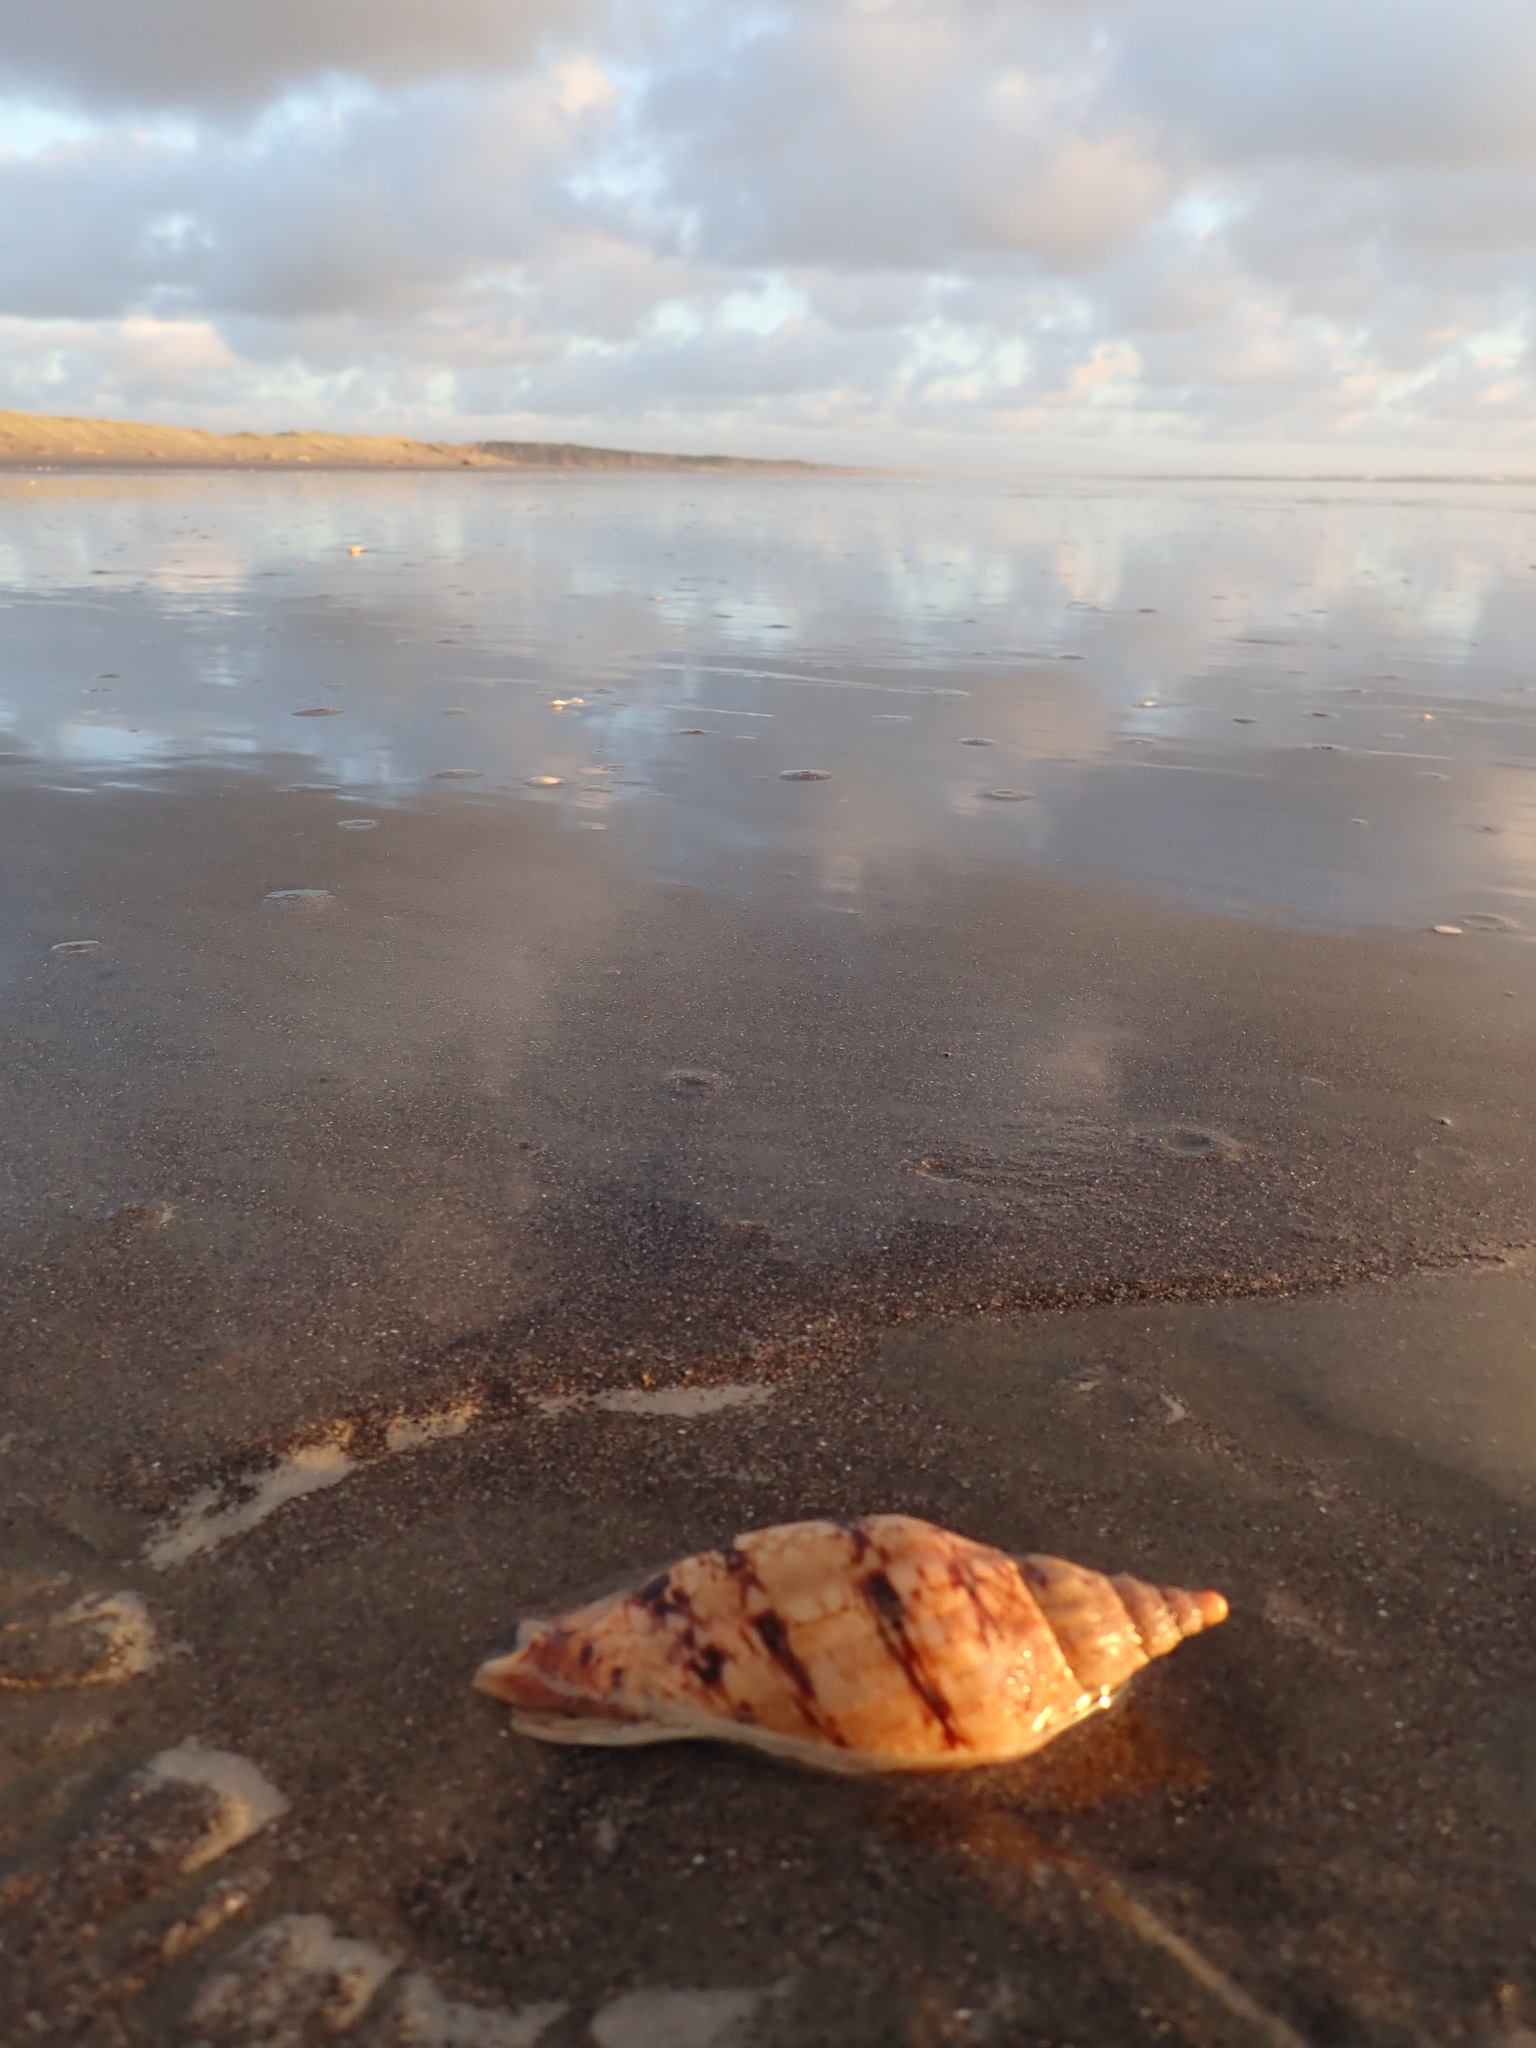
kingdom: Animalia
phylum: Mollusca
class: Gastropoda
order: Neogastropoda
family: Volutidae
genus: Alcithoe
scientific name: Alcithoe arabica
